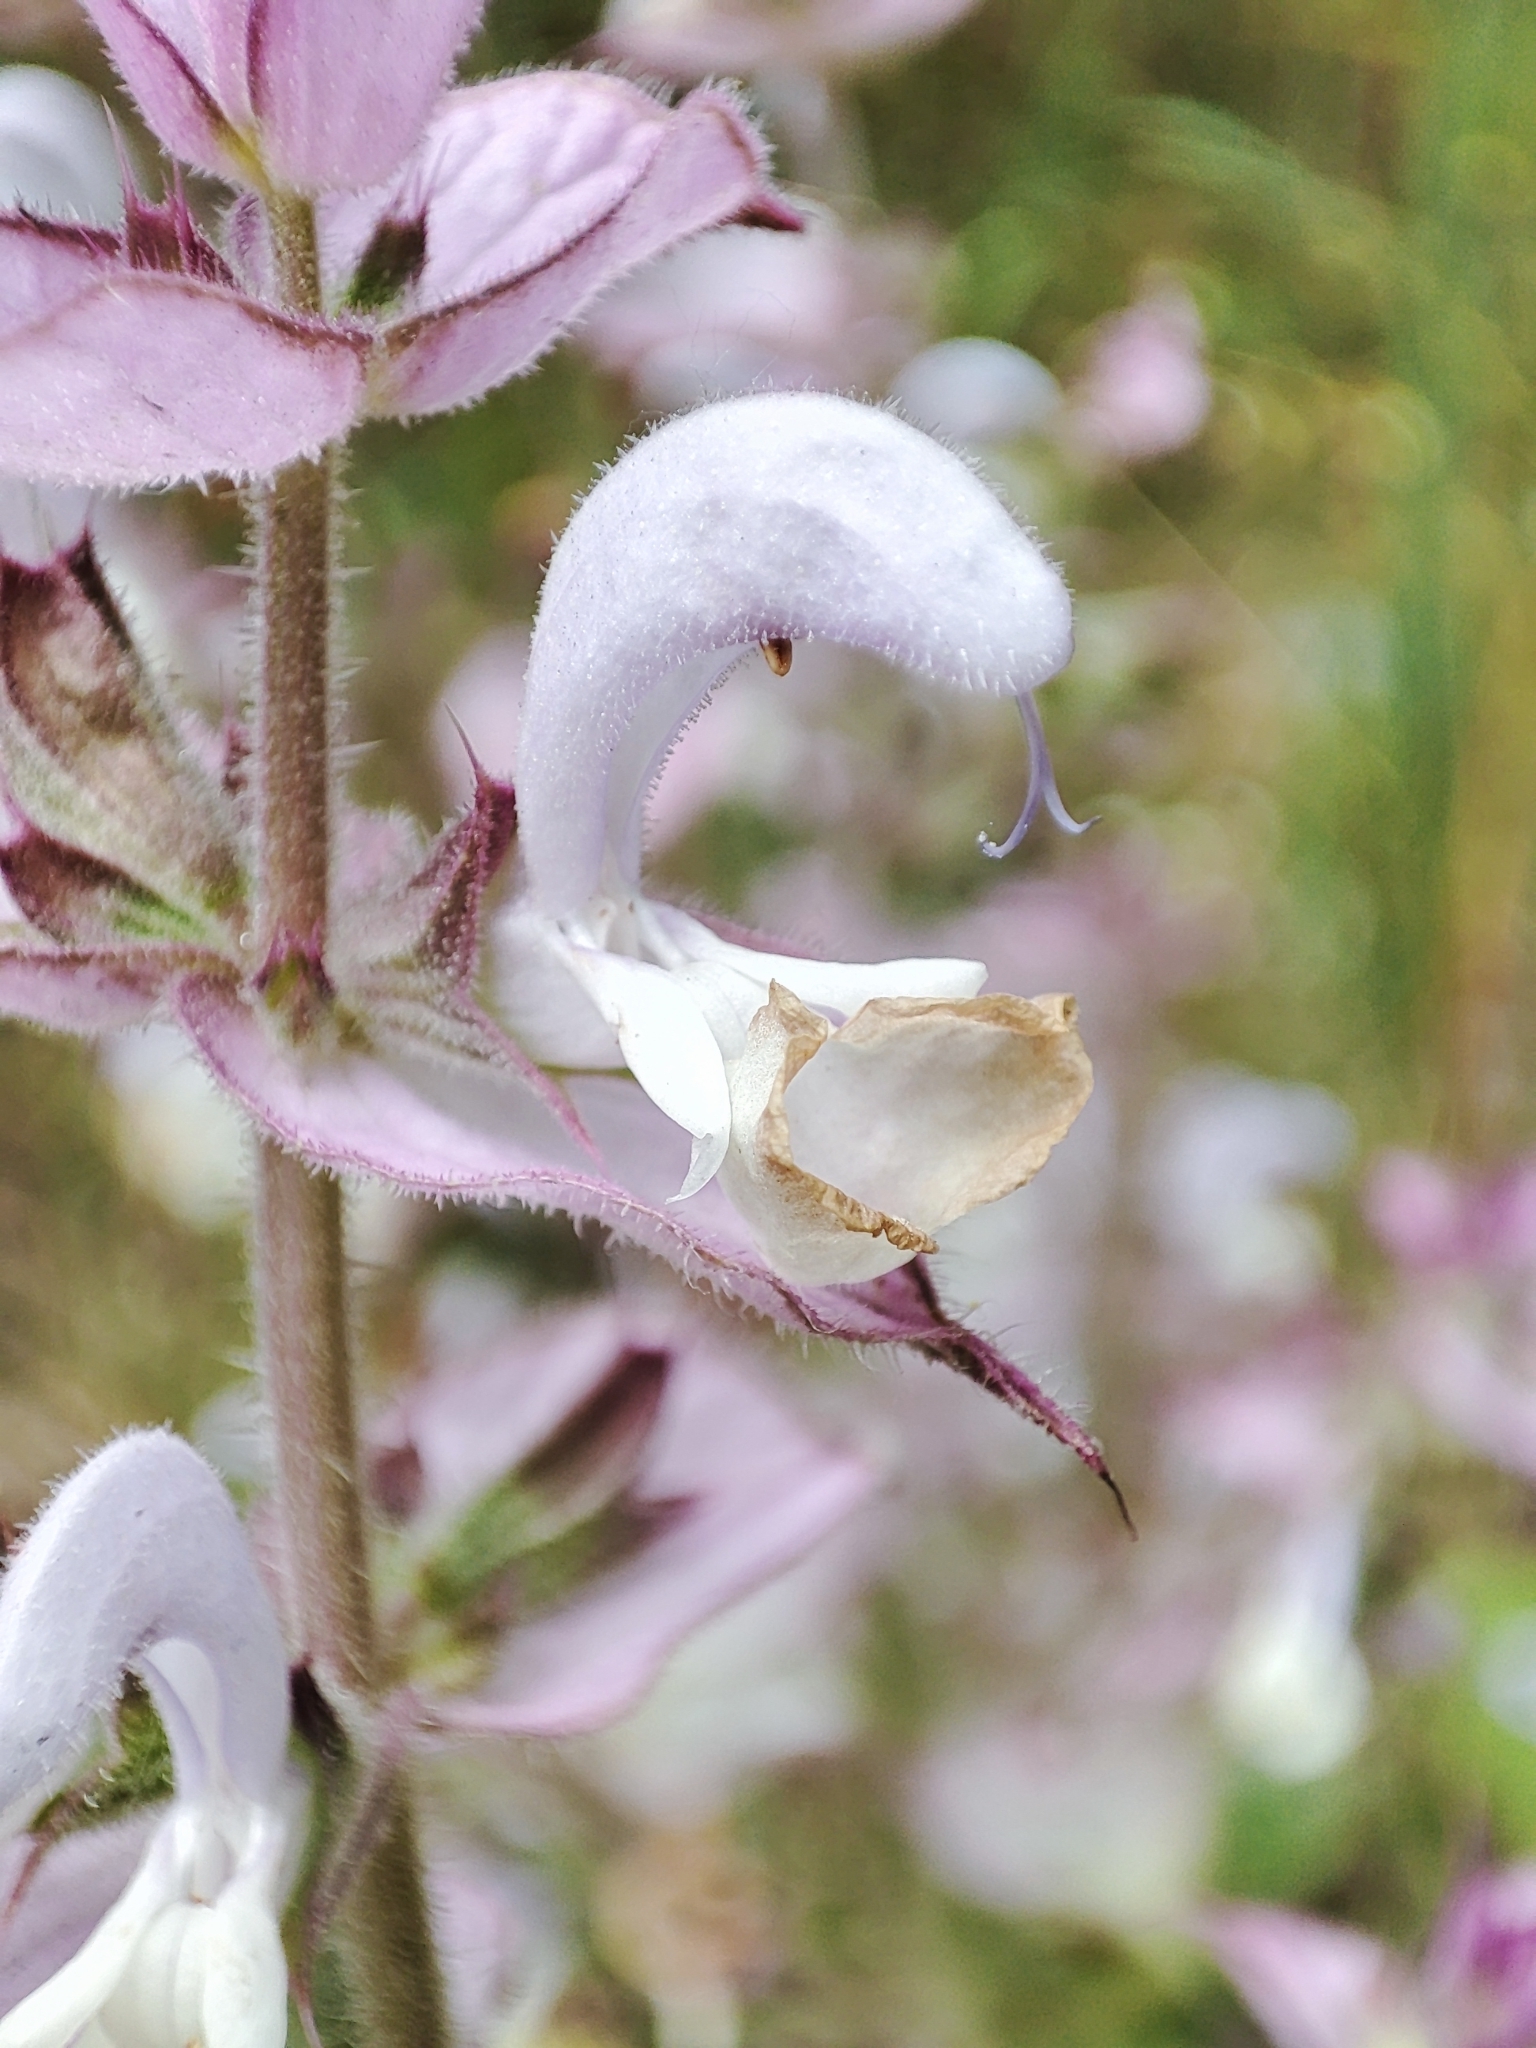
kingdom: Plantae
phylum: Tracheophyta
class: Magnoliopsida
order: Lamiales
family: Lamiaceae
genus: Salvia
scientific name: Salvia sclarea
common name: Clary
